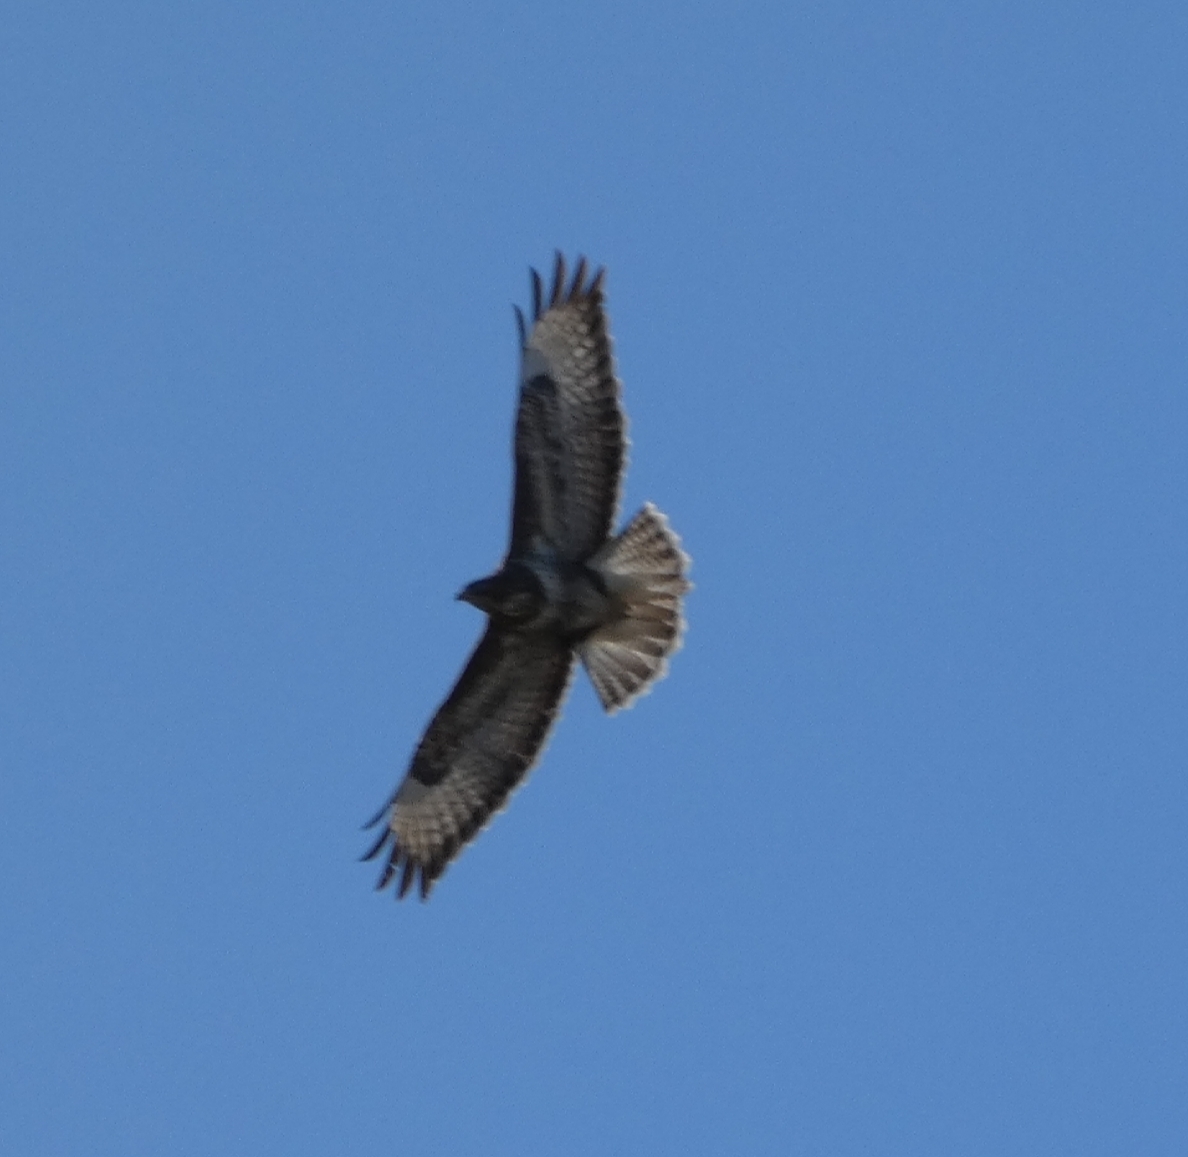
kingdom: Animalia
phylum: Chordata
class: Aves
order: Accipitriformes
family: Accipitridae
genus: Buteo
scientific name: Buteo buteo
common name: Common buzzard
